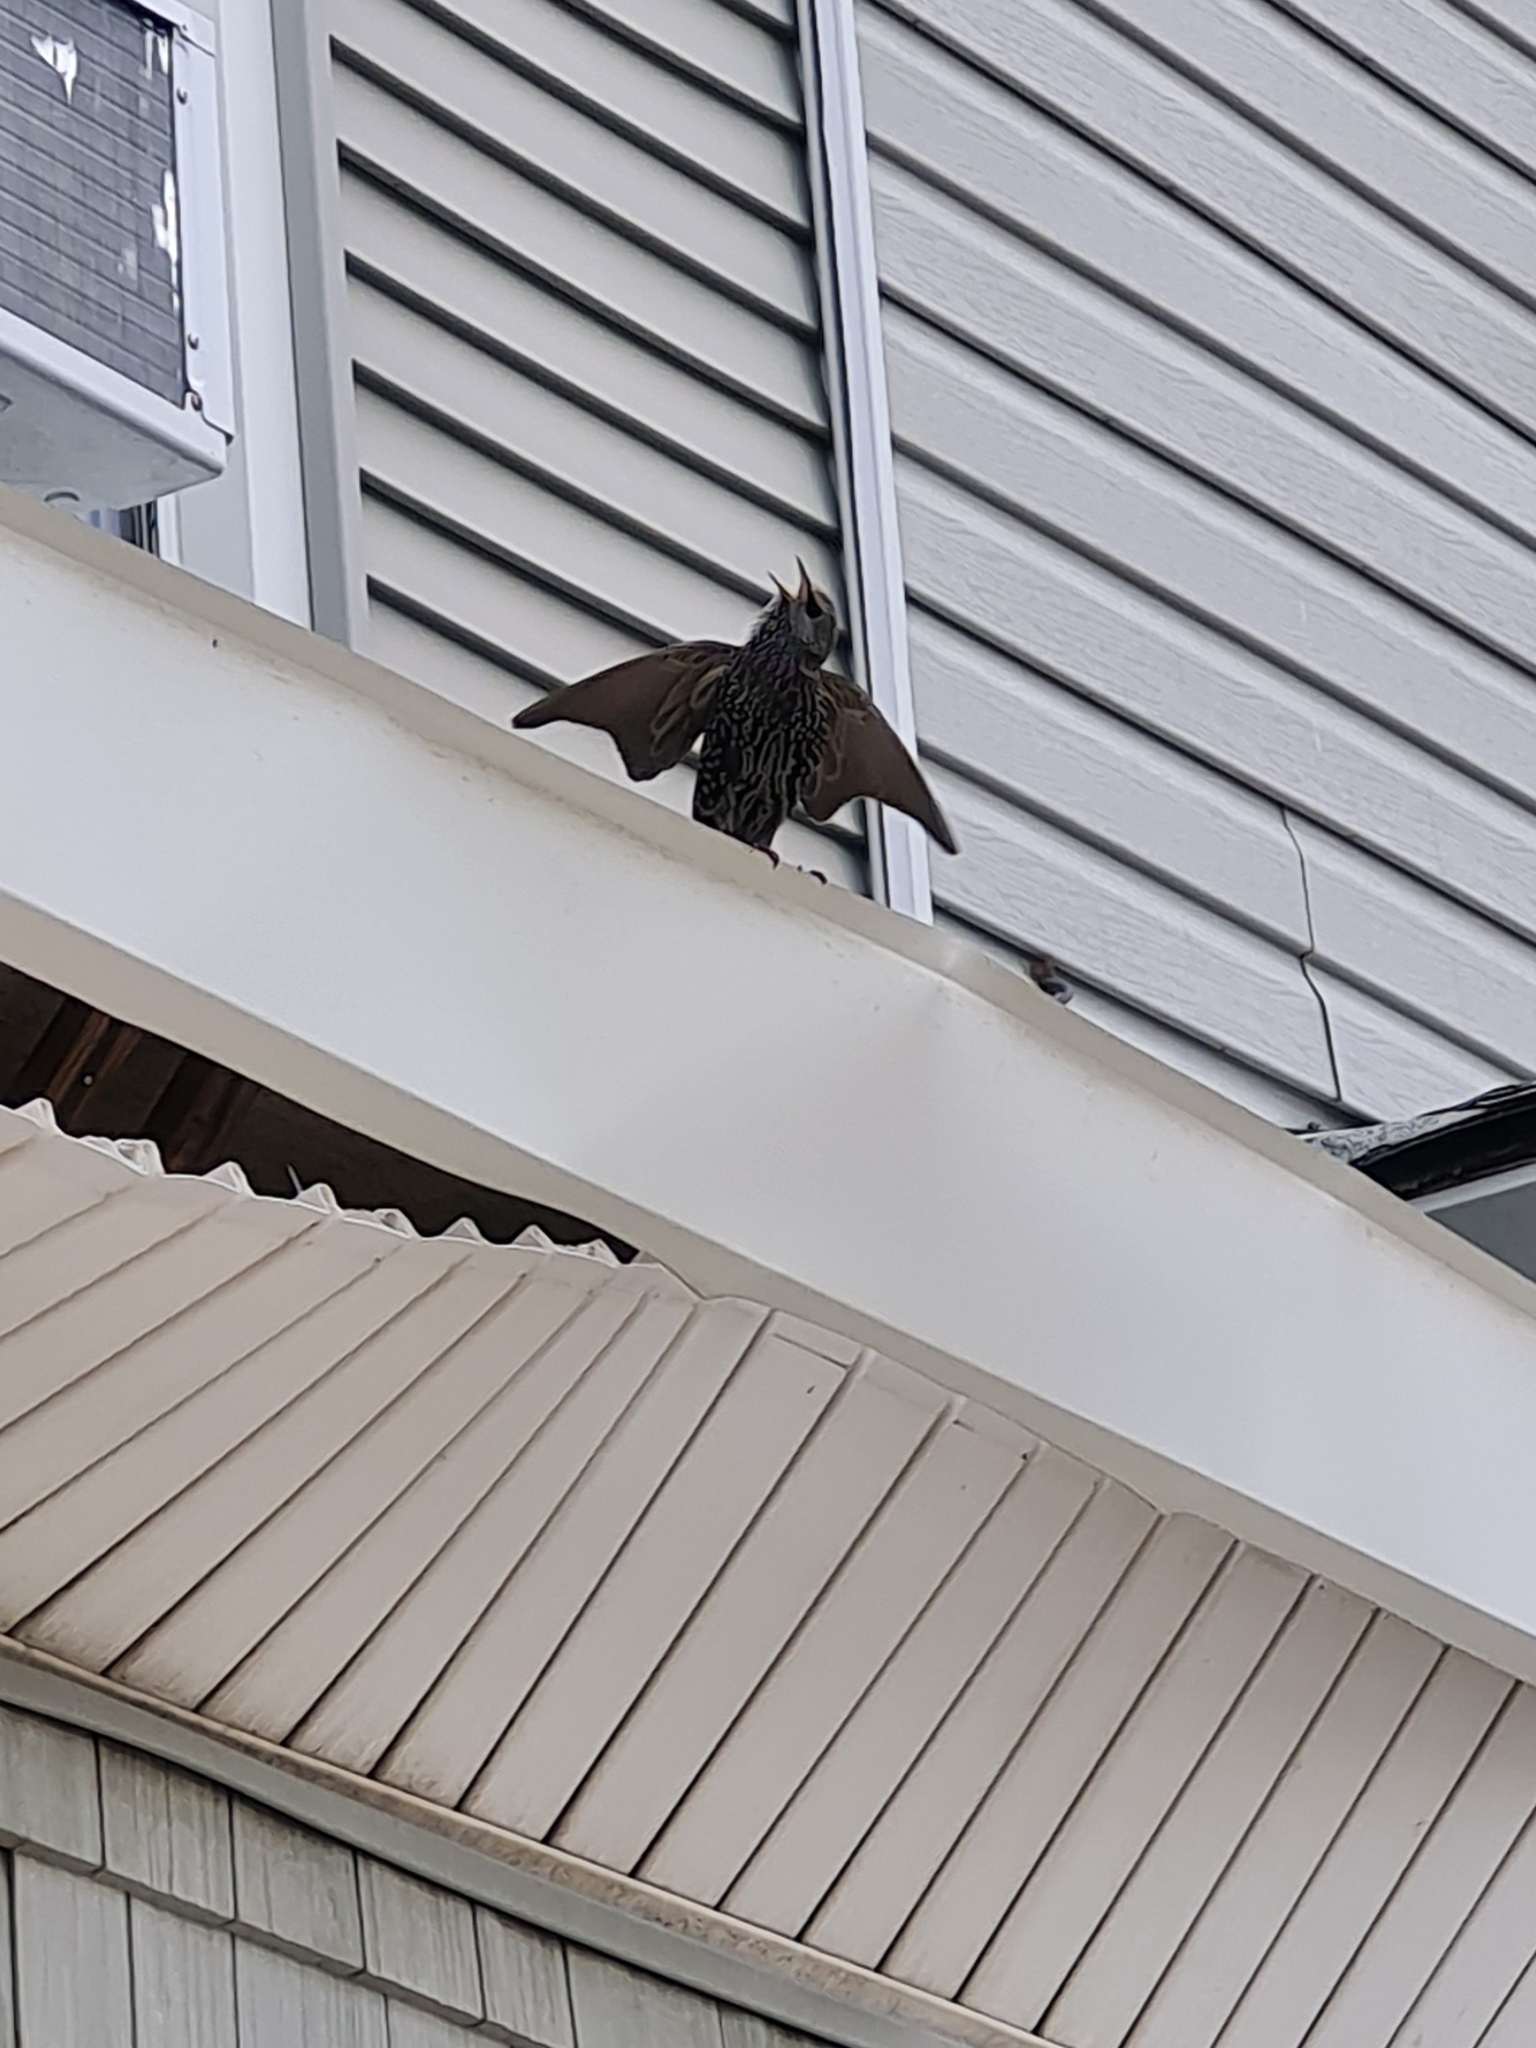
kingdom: Animalia
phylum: Chordata
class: Aves
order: Passeriformes
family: Sturnidae
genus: Sturnus
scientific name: Sturnus vulgaris
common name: Common starling
